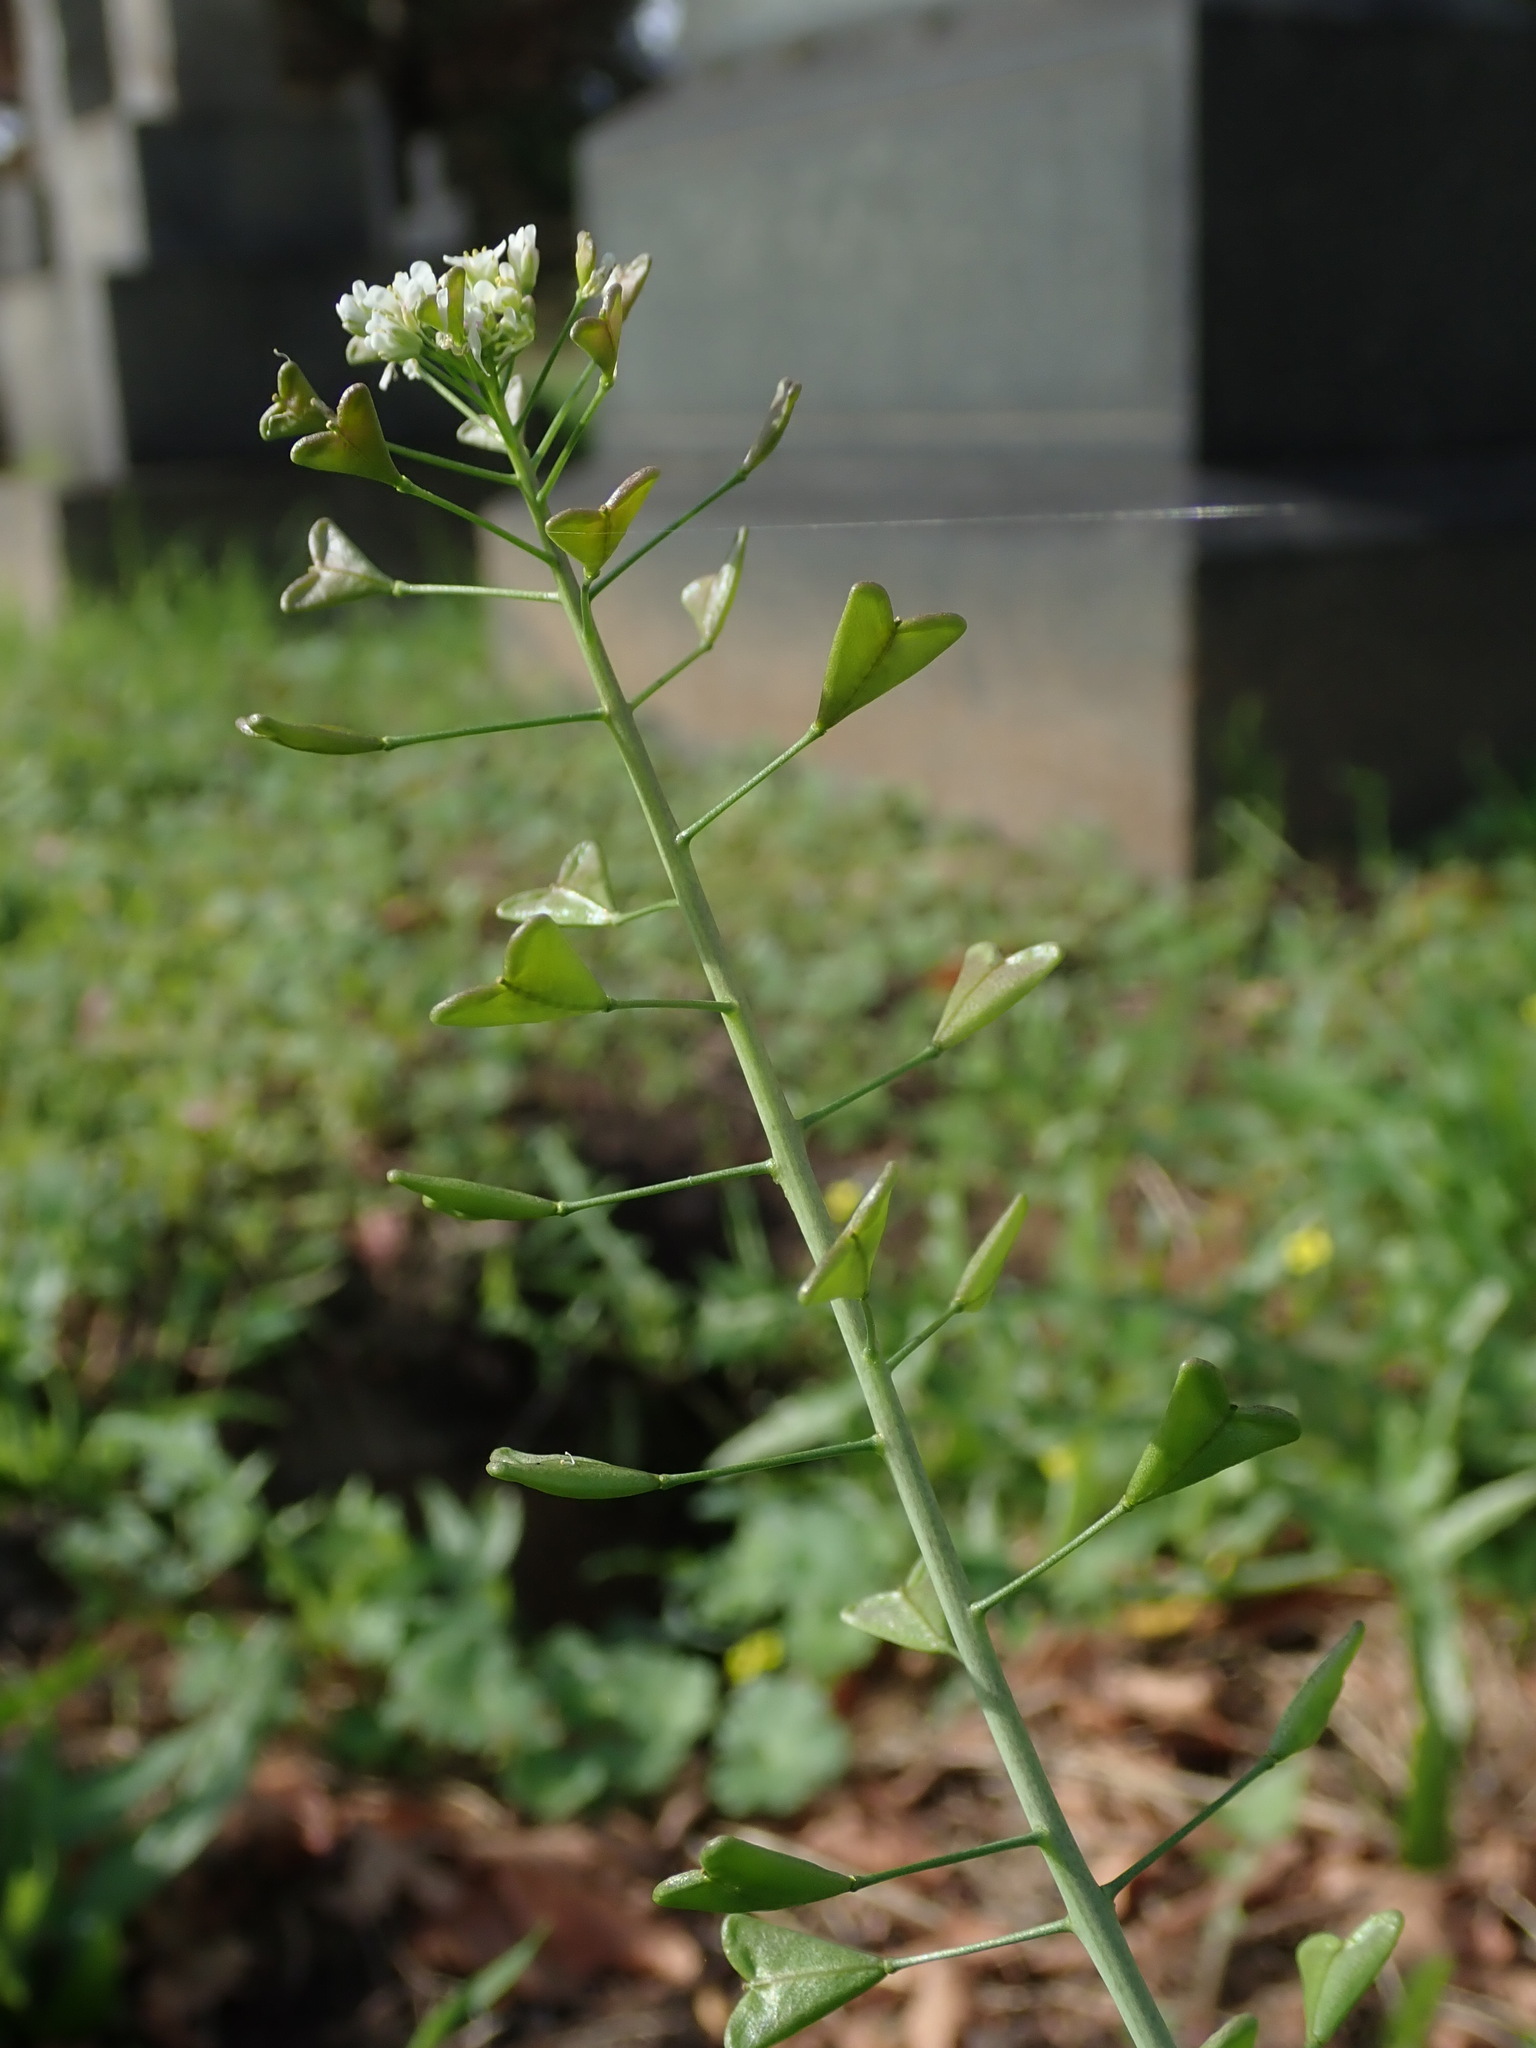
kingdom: Plantae
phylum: Tracheophyta
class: Magnoliopsida
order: Brassicales
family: Brassicaceae
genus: Capsella
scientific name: Capsella bursa-pastoris
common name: Shepherd's purse
